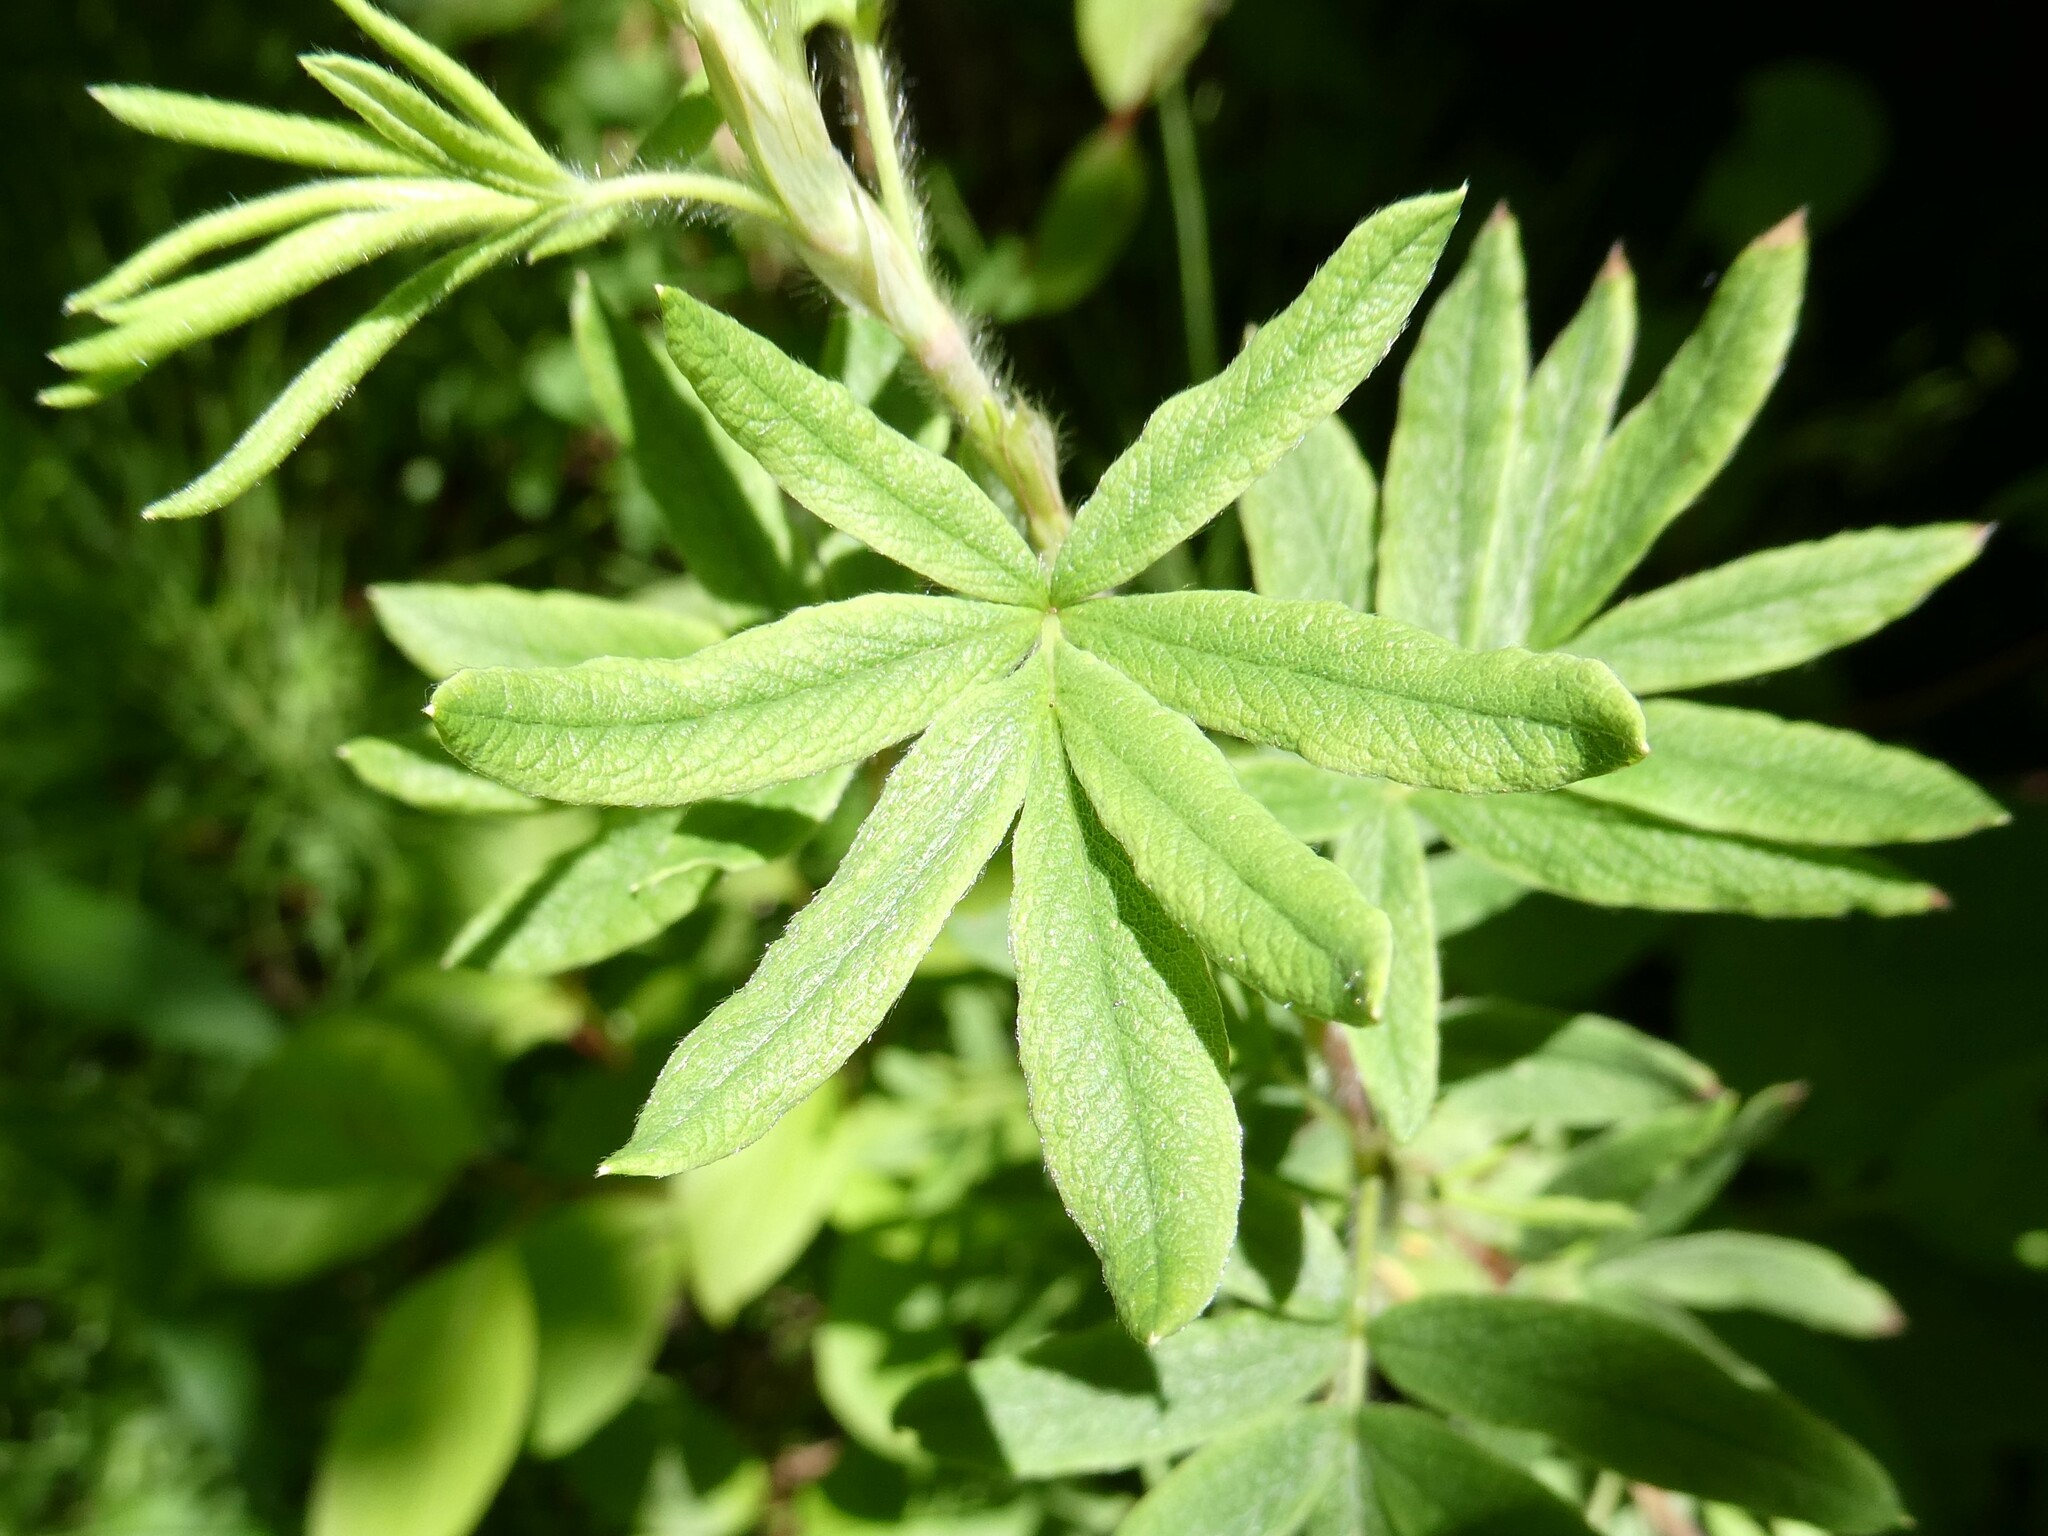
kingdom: Plantae
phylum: Tracheophyta
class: Magnoliopsida
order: Rosales
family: Rosaceae
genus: Dasiphora
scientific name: Dasiphora fruticosa
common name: Shrubby cinquefoil
